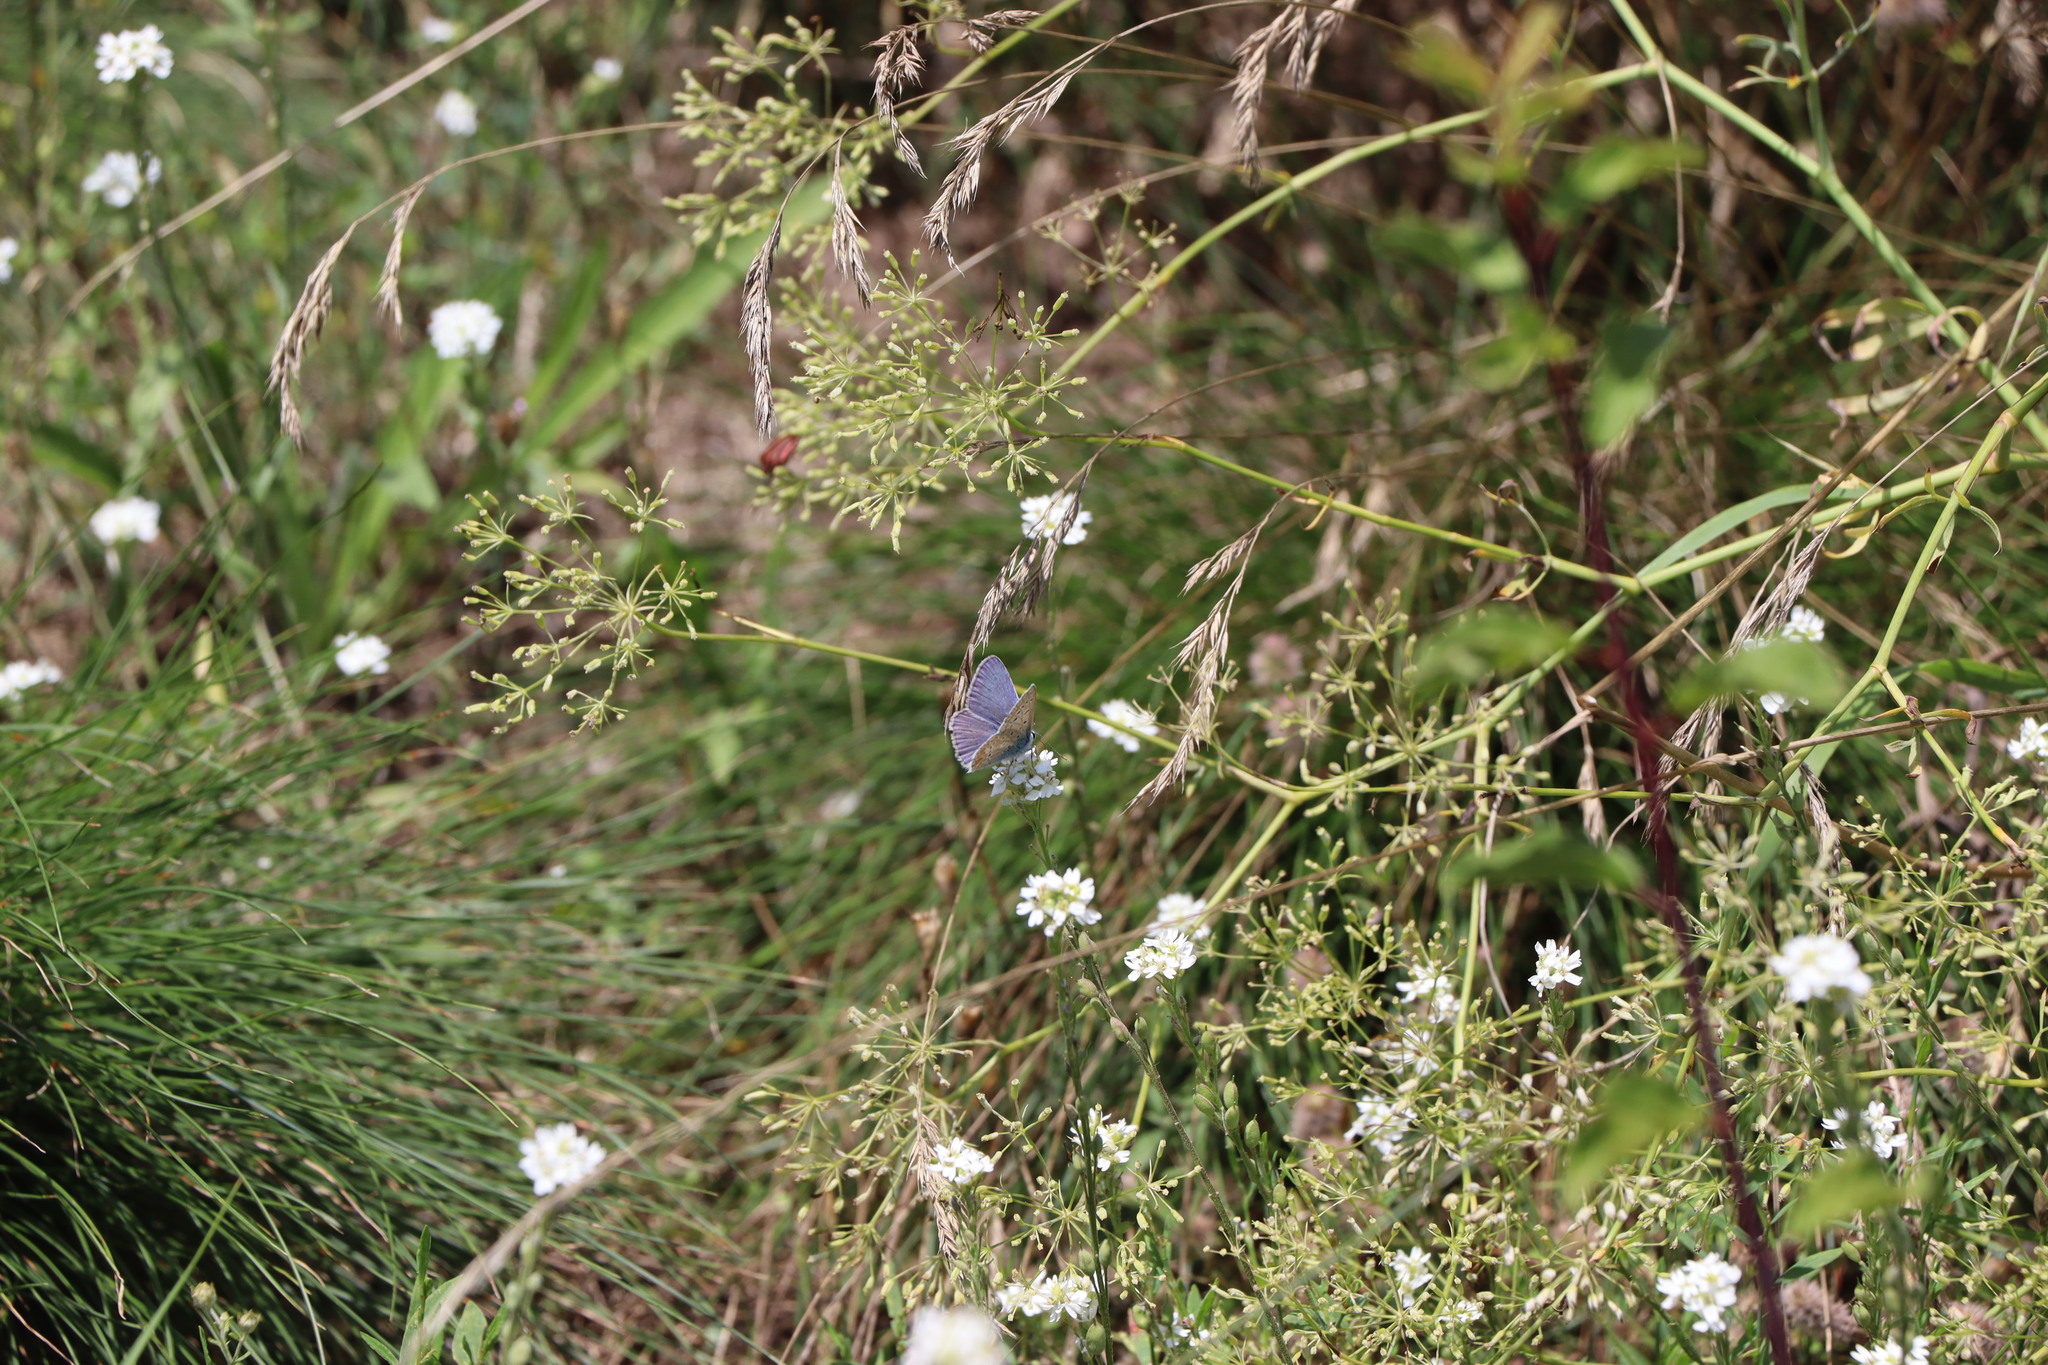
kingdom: Animalia
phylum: Arthropoda
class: Insecta
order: Lepidoptera
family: Lycaenidae
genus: Polyommatus
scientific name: Polyommatus icarus
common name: Common blue
